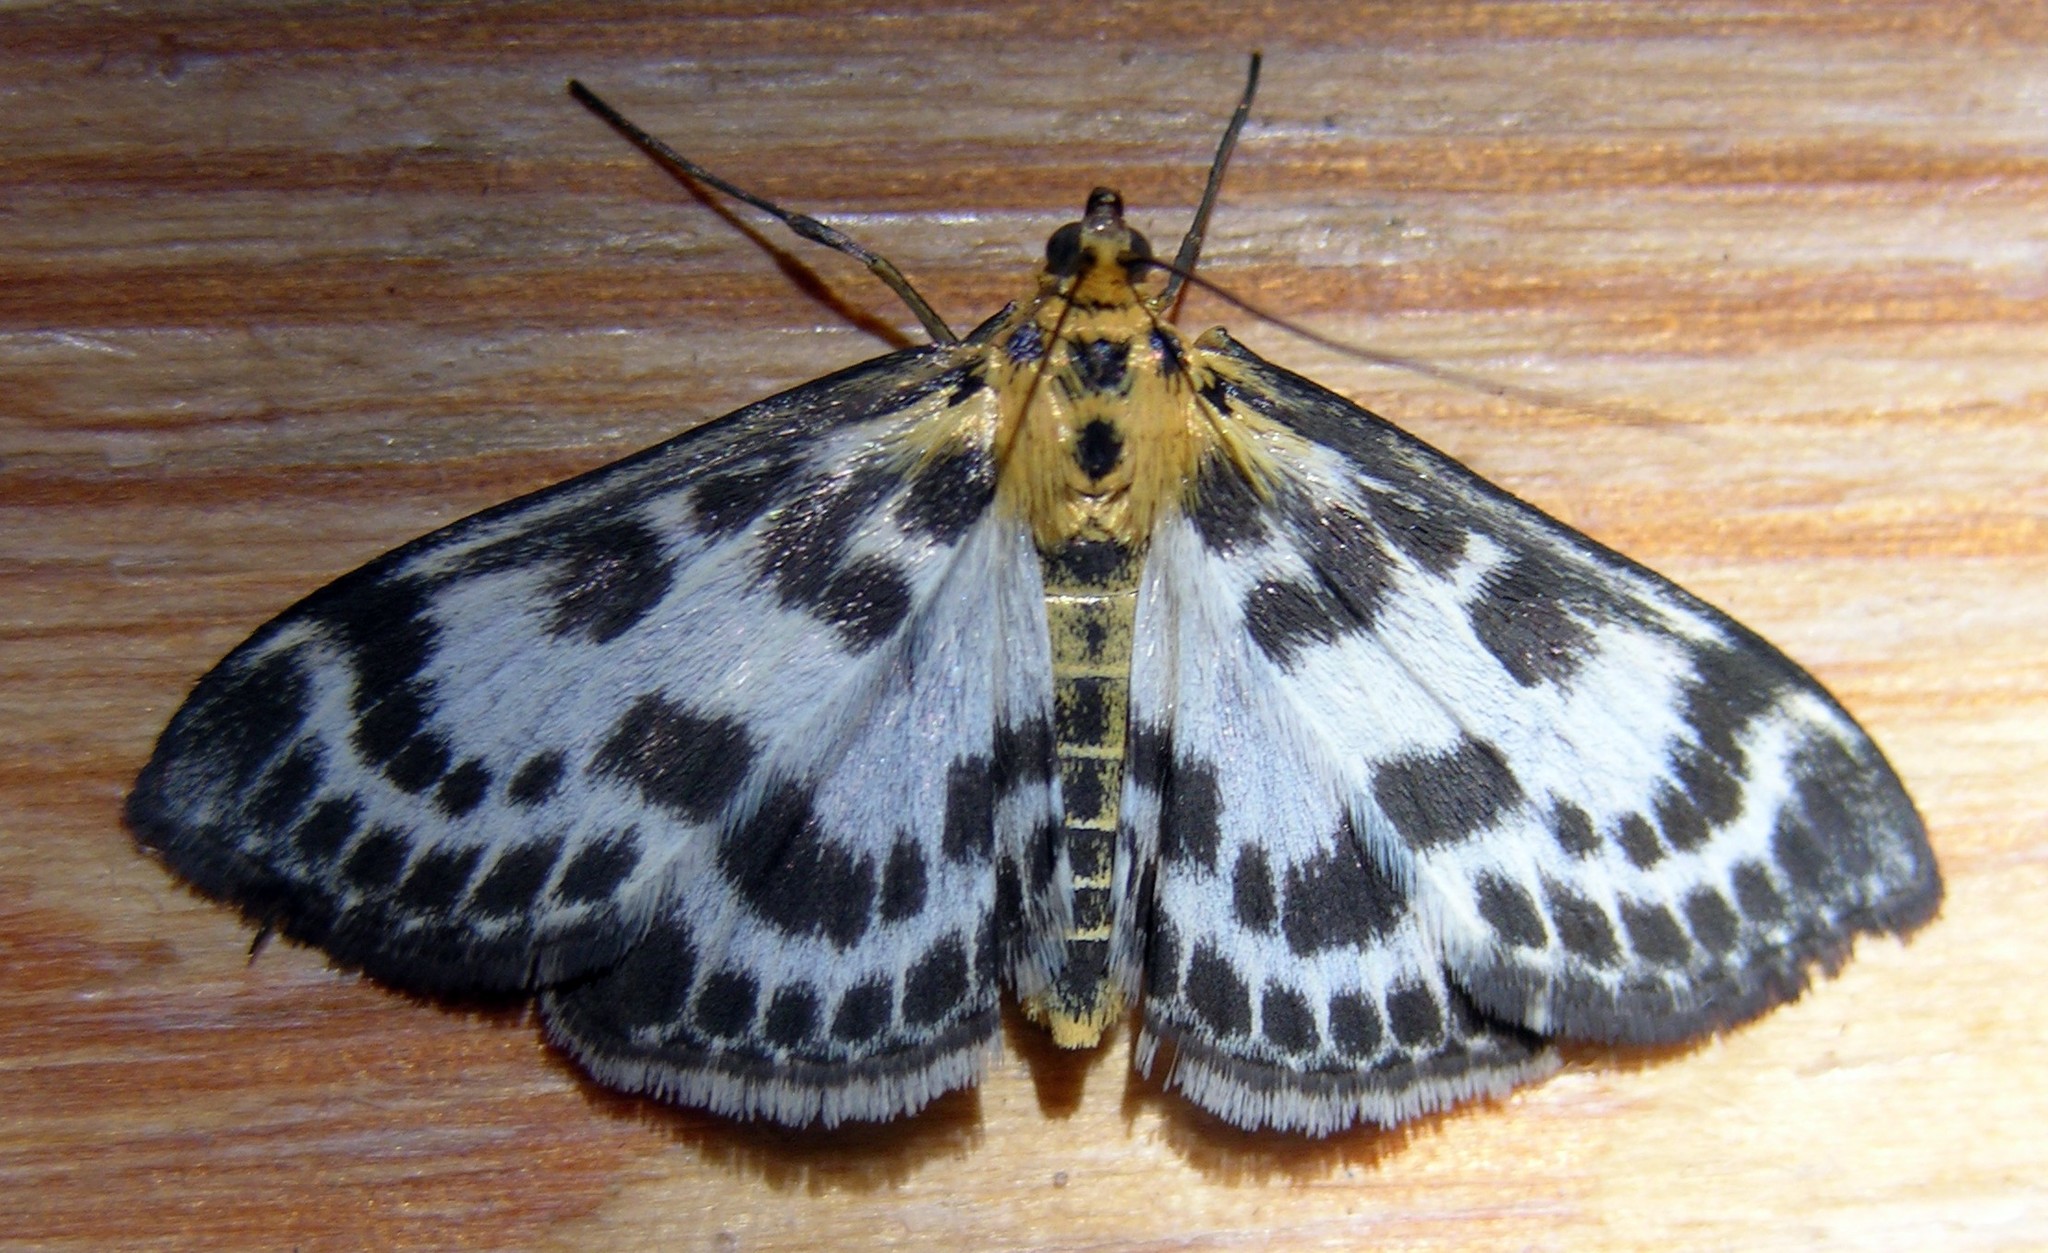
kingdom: Animalia
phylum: Arthropoda
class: Insecta
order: Lepidoptera
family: Crambidae
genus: Anania
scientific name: Anania hortulata
